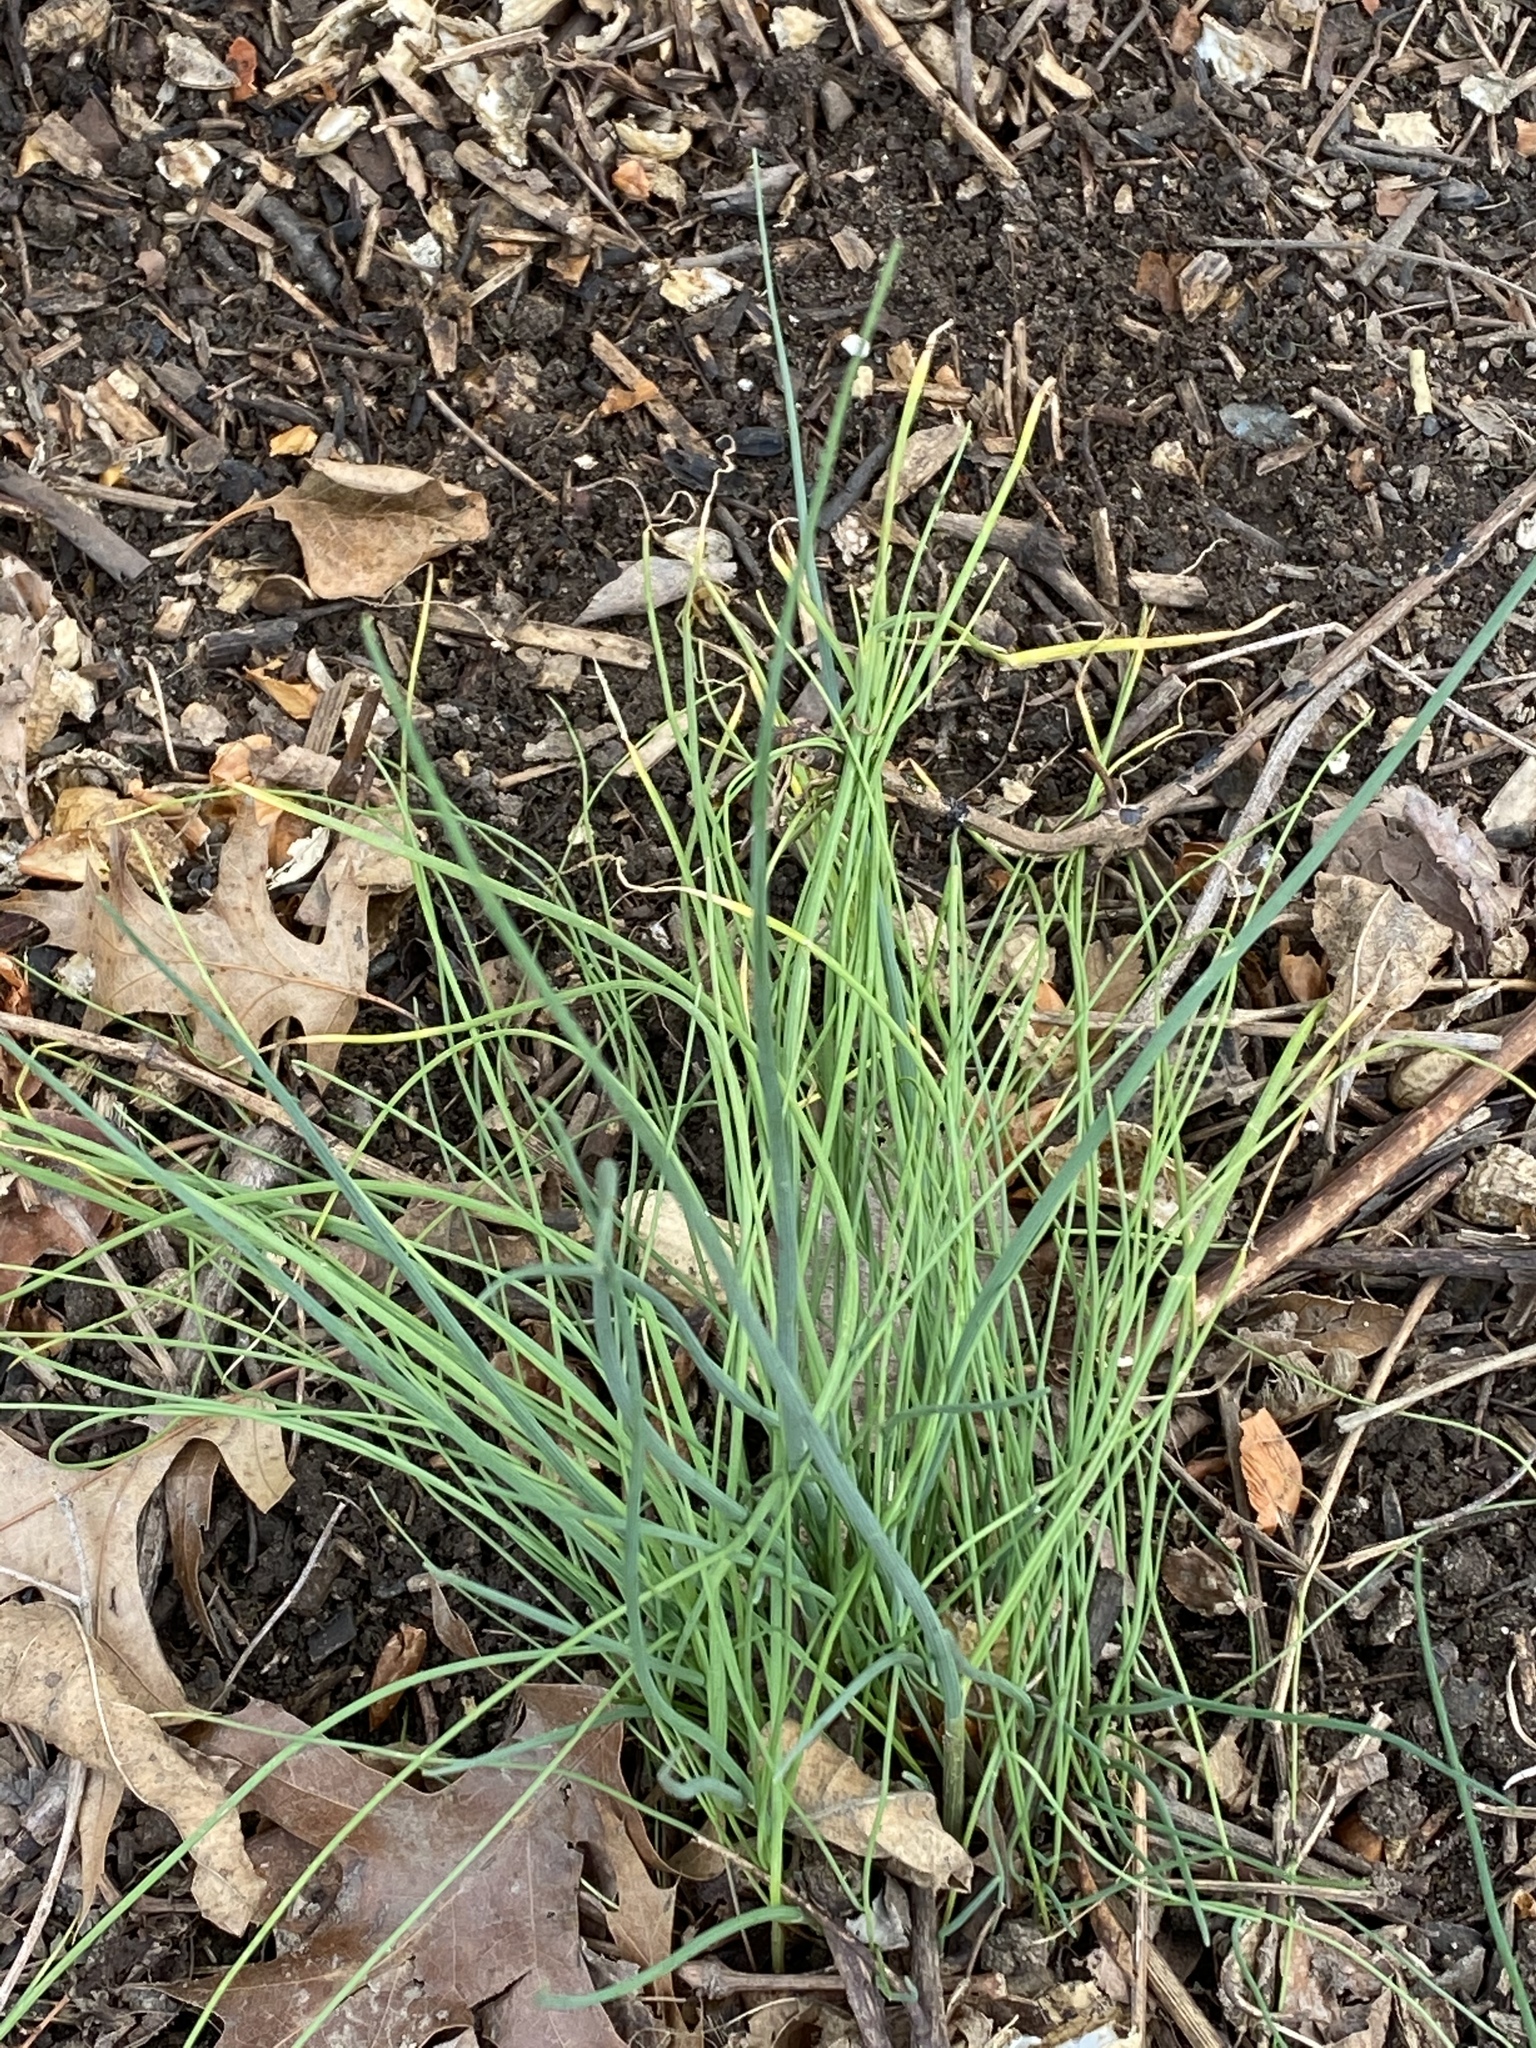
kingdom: Plantae
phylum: Tracheophyta
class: Liliopsida
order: Asparagales
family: Amaryllidaceae
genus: Allium
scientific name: Allium vineale
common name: Crow garlic
